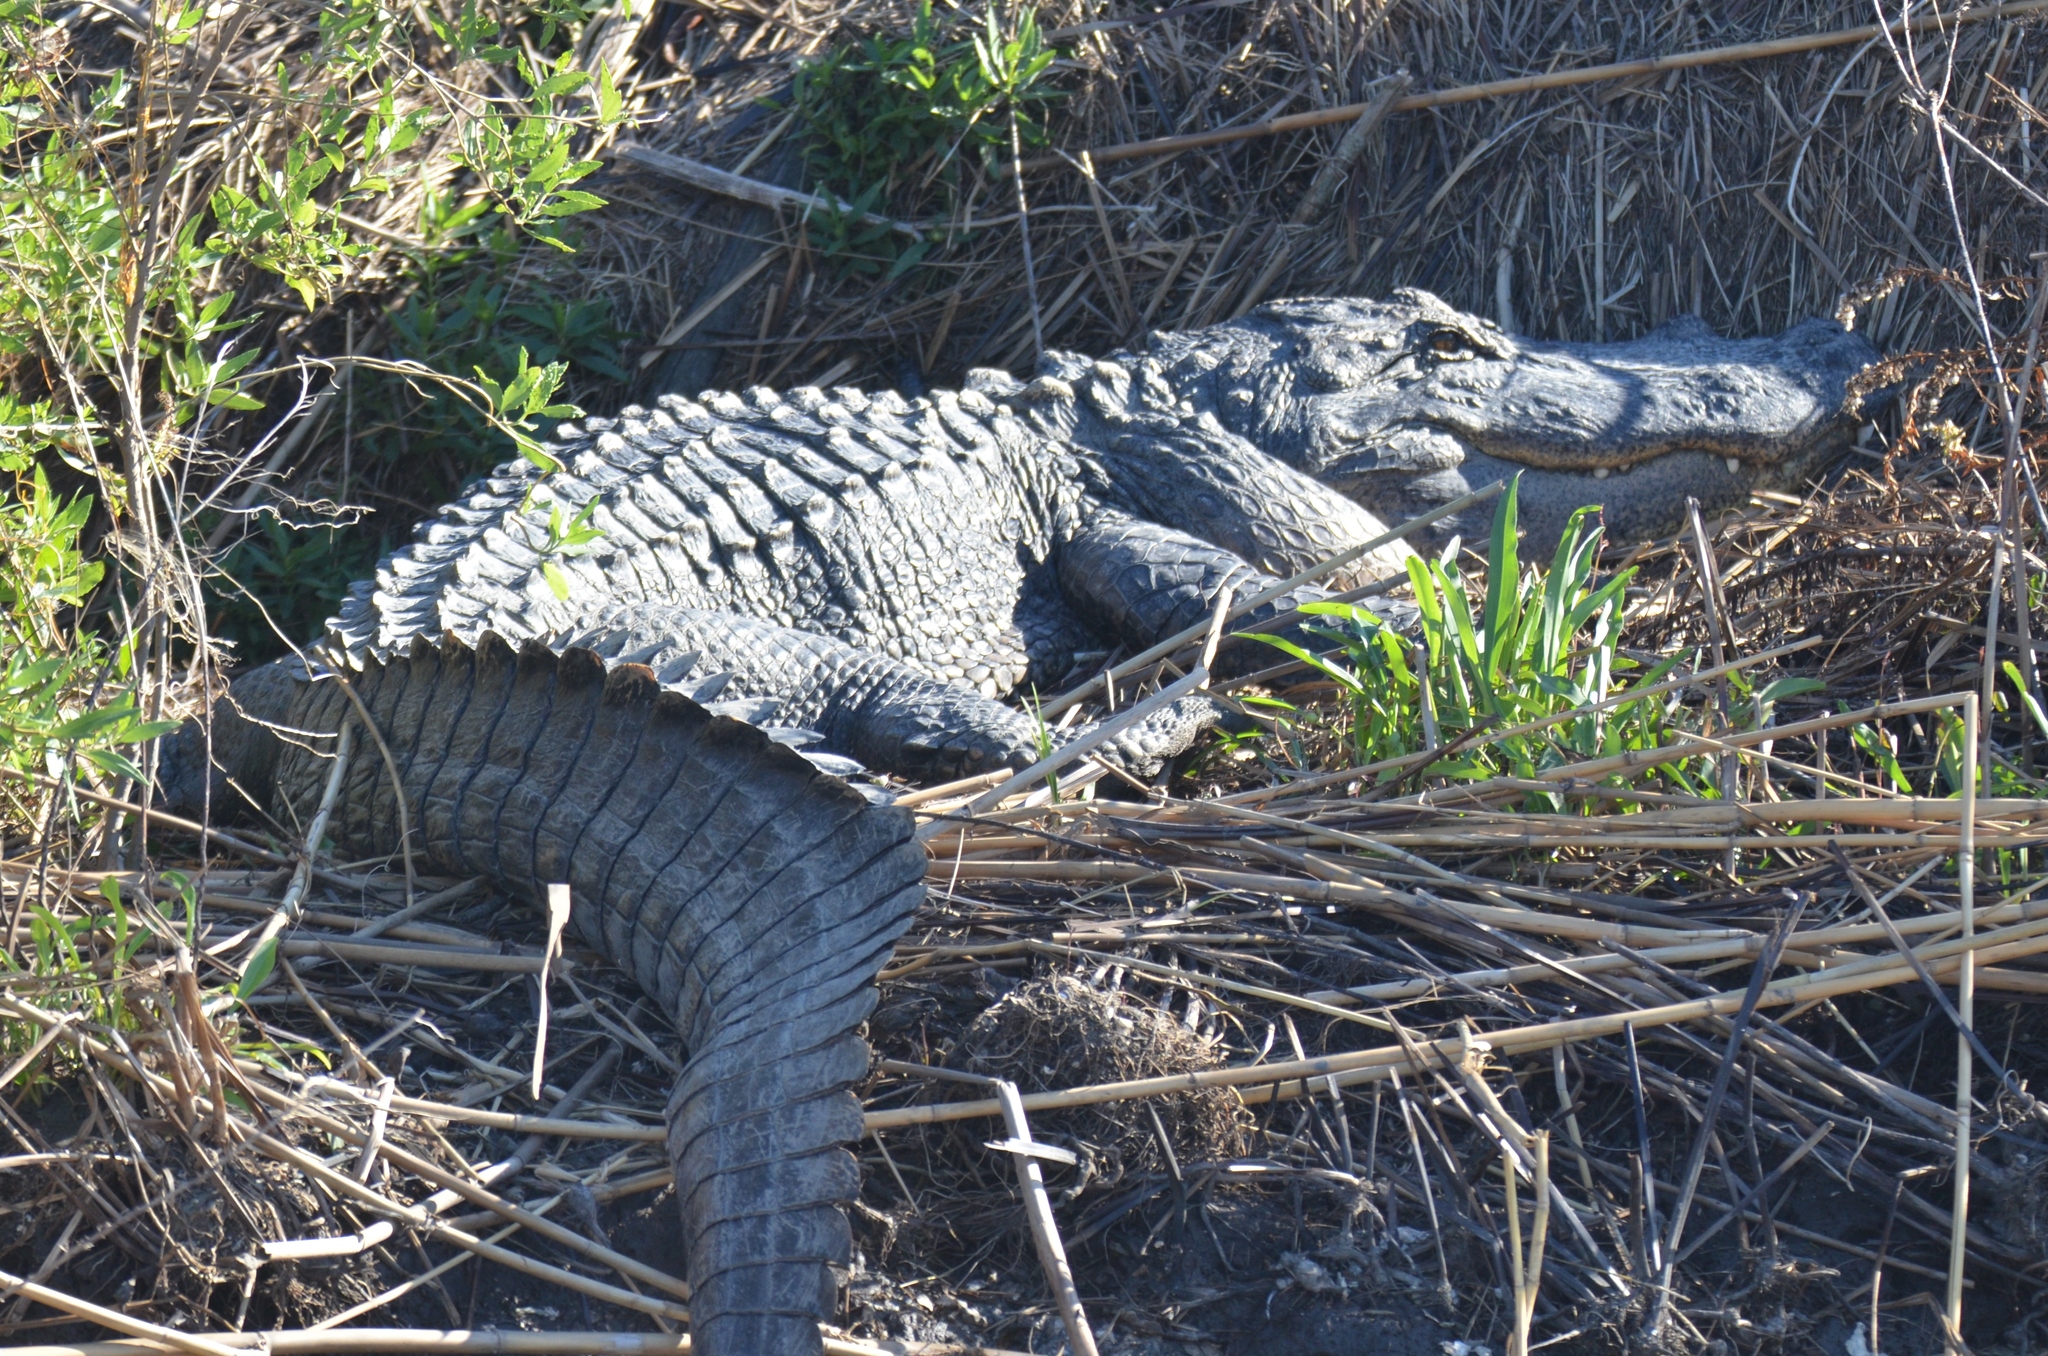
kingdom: Animalia
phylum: Chordata
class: Crocodylia
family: Alligatoridae
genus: Alligator
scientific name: Alligator mississippiensis
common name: American alligator
